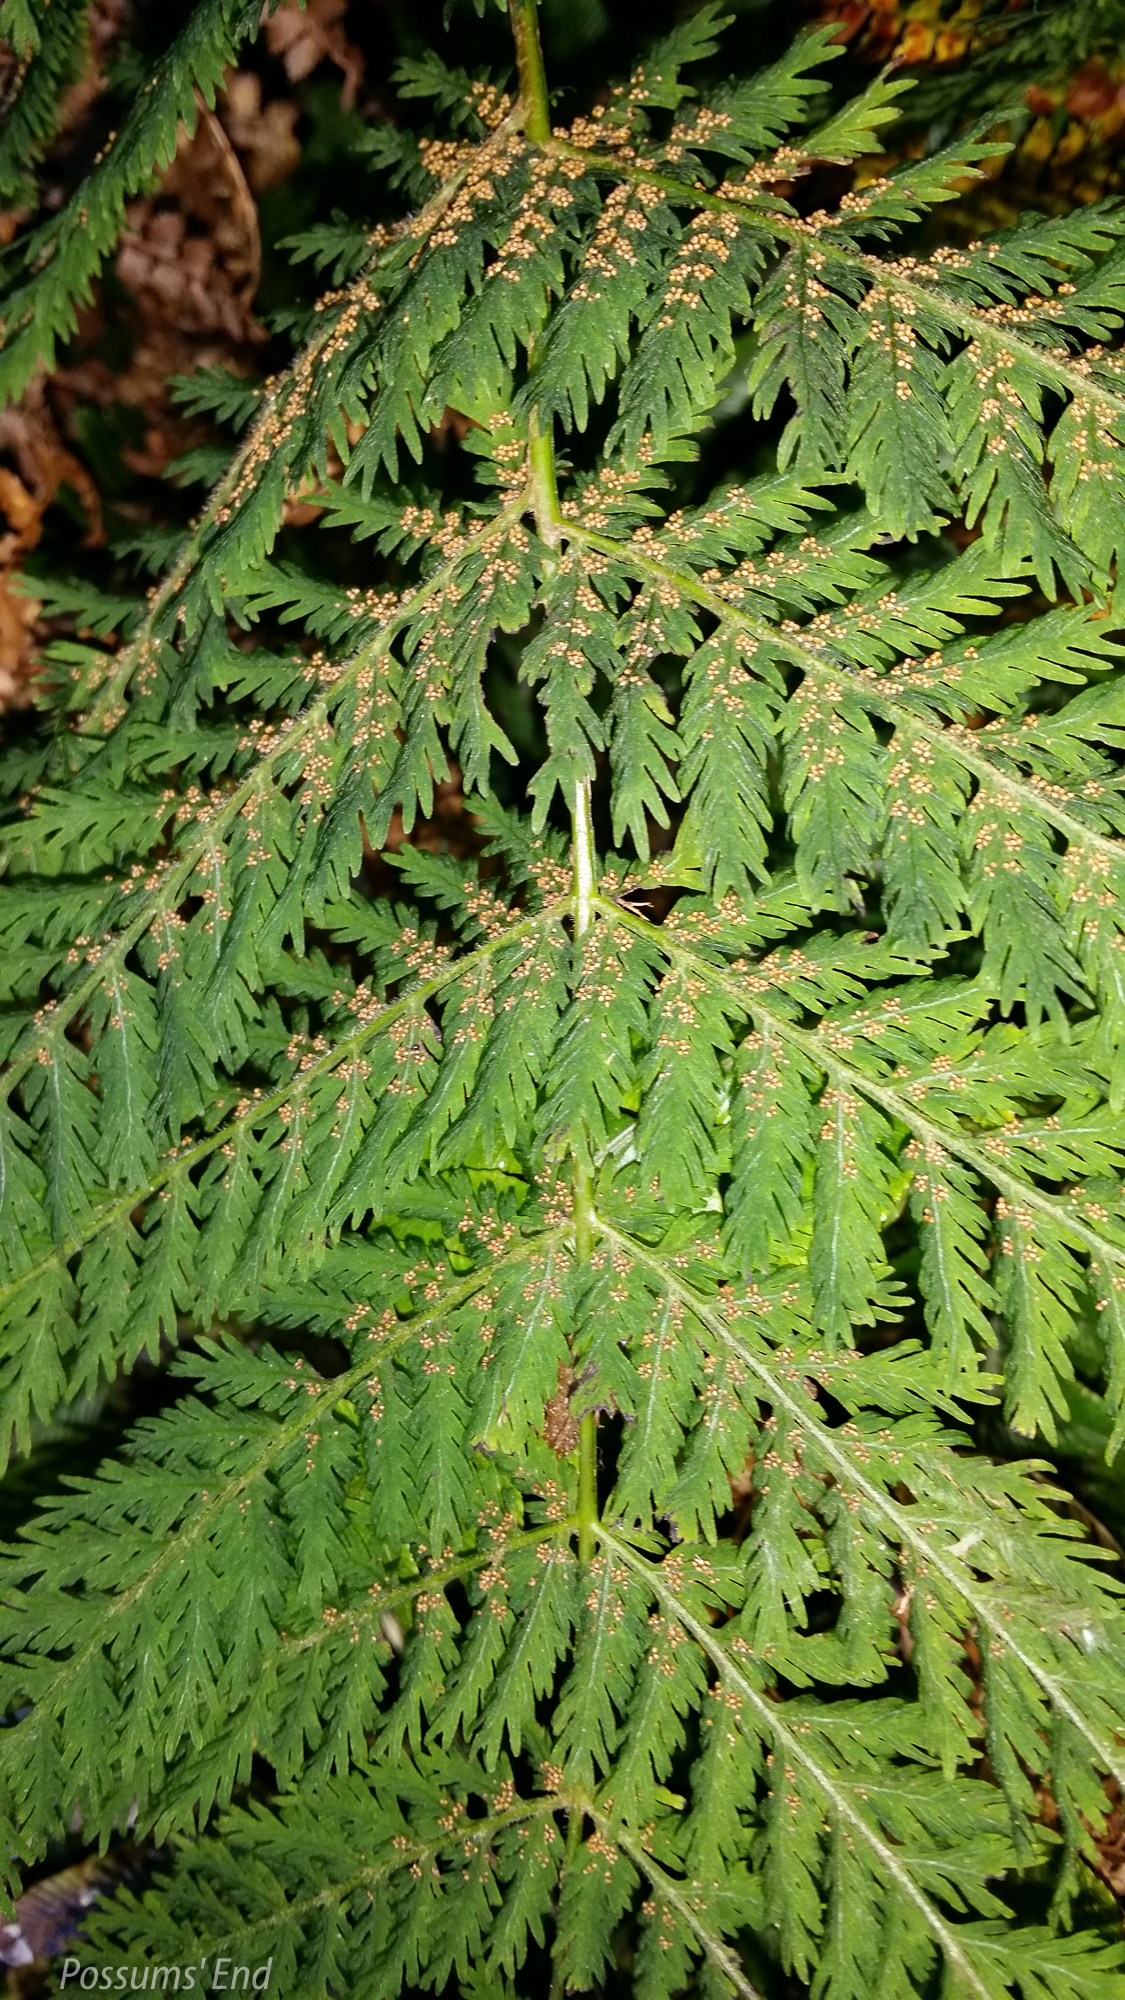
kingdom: Plantae
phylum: Tracheophyta
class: Polypodiopsida
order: Osmundales
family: Osmundaceae
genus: Leptopteris
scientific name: Leptopteris hymenophylloides
